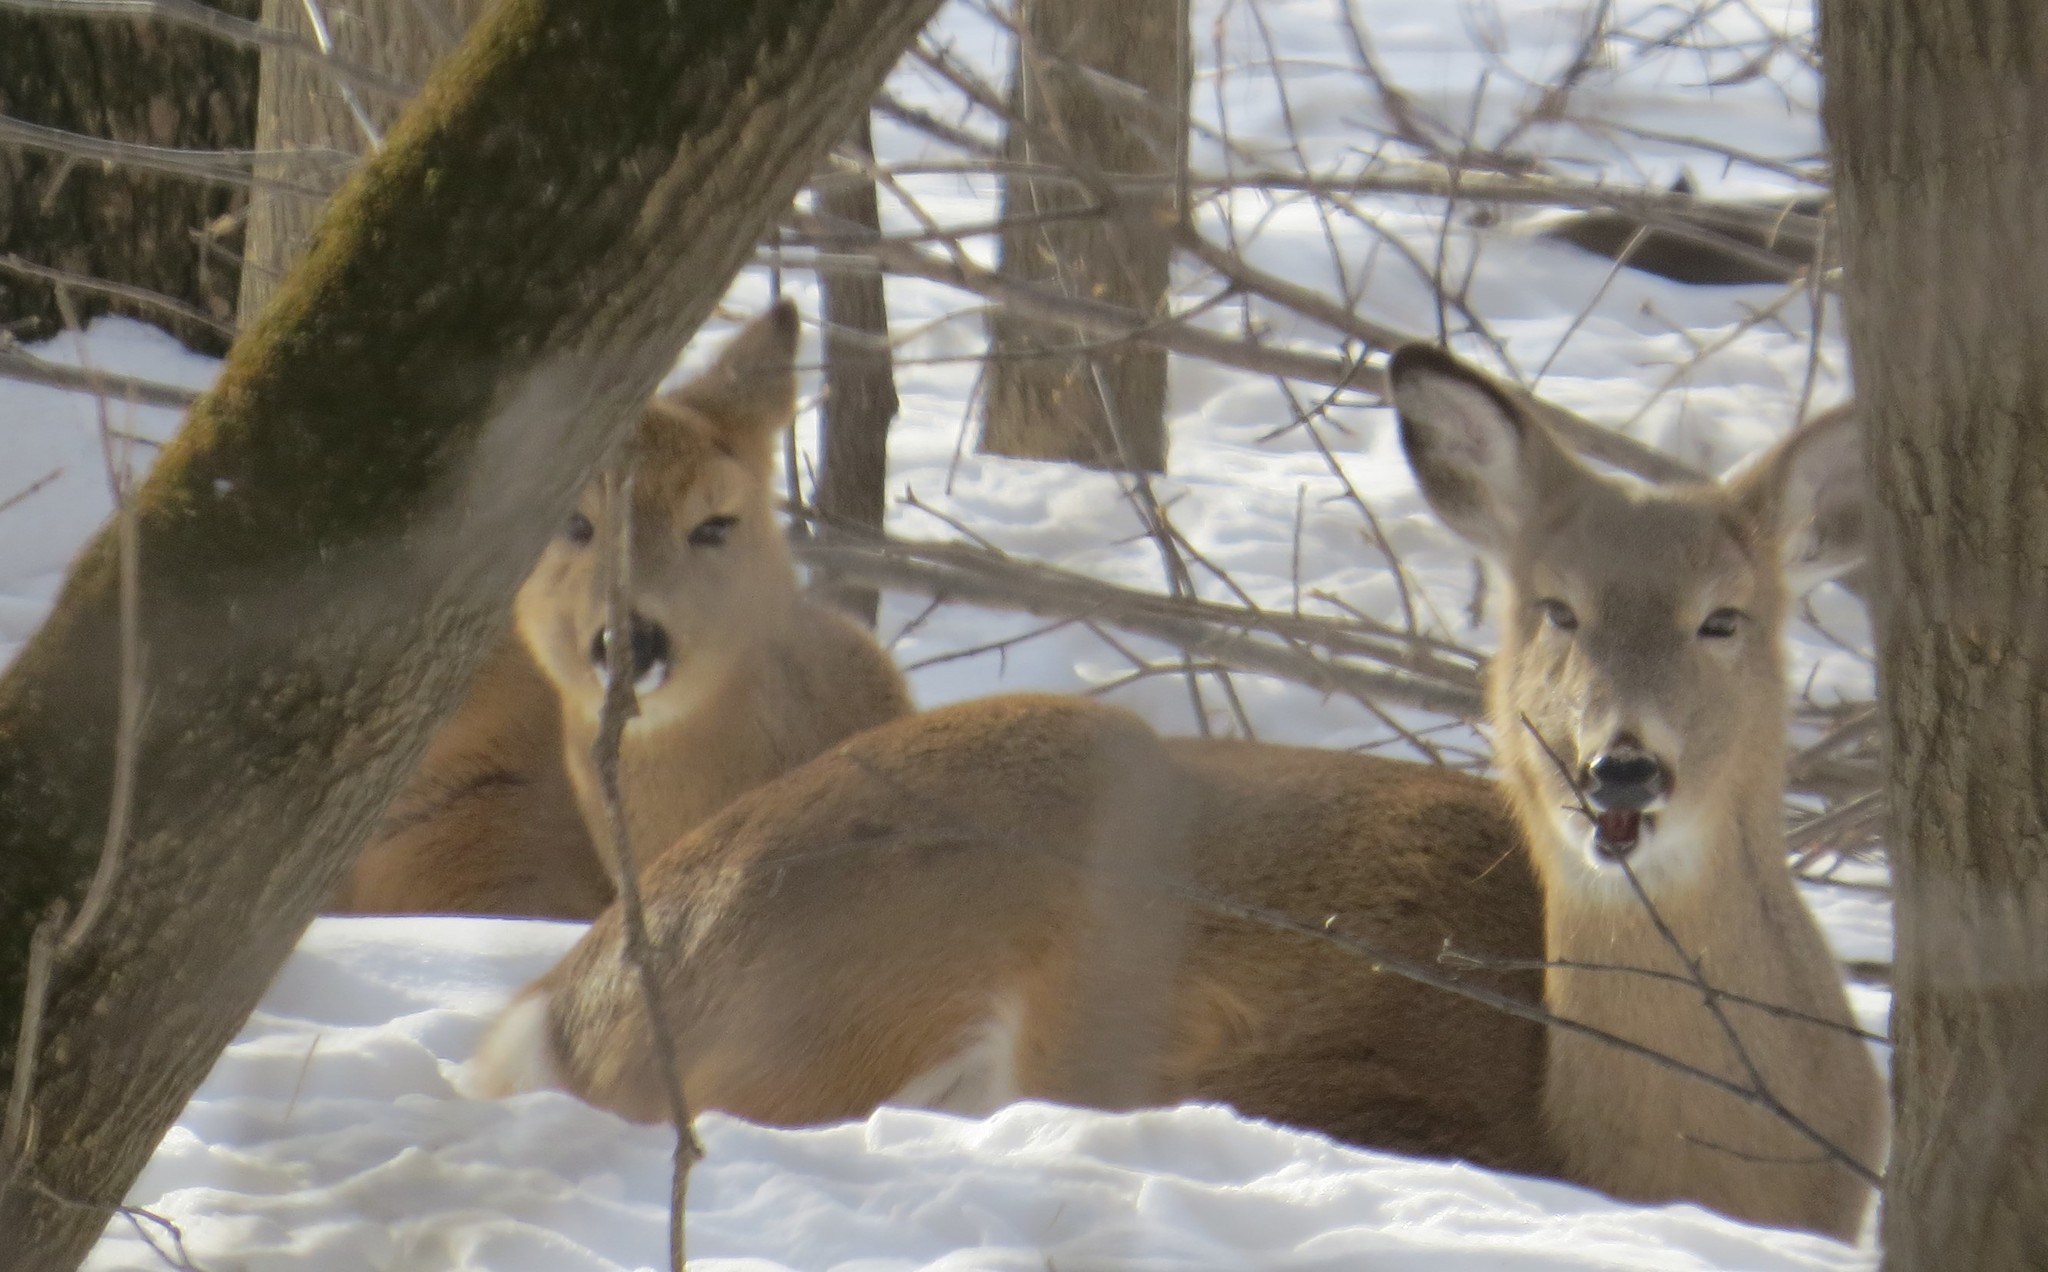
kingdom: Animalia
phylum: Chordata
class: Mammalia
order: Artiodactyla
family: Cervidae
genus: Odocoileus
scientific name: Odocoileus virginianus
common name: White-tailed deer
